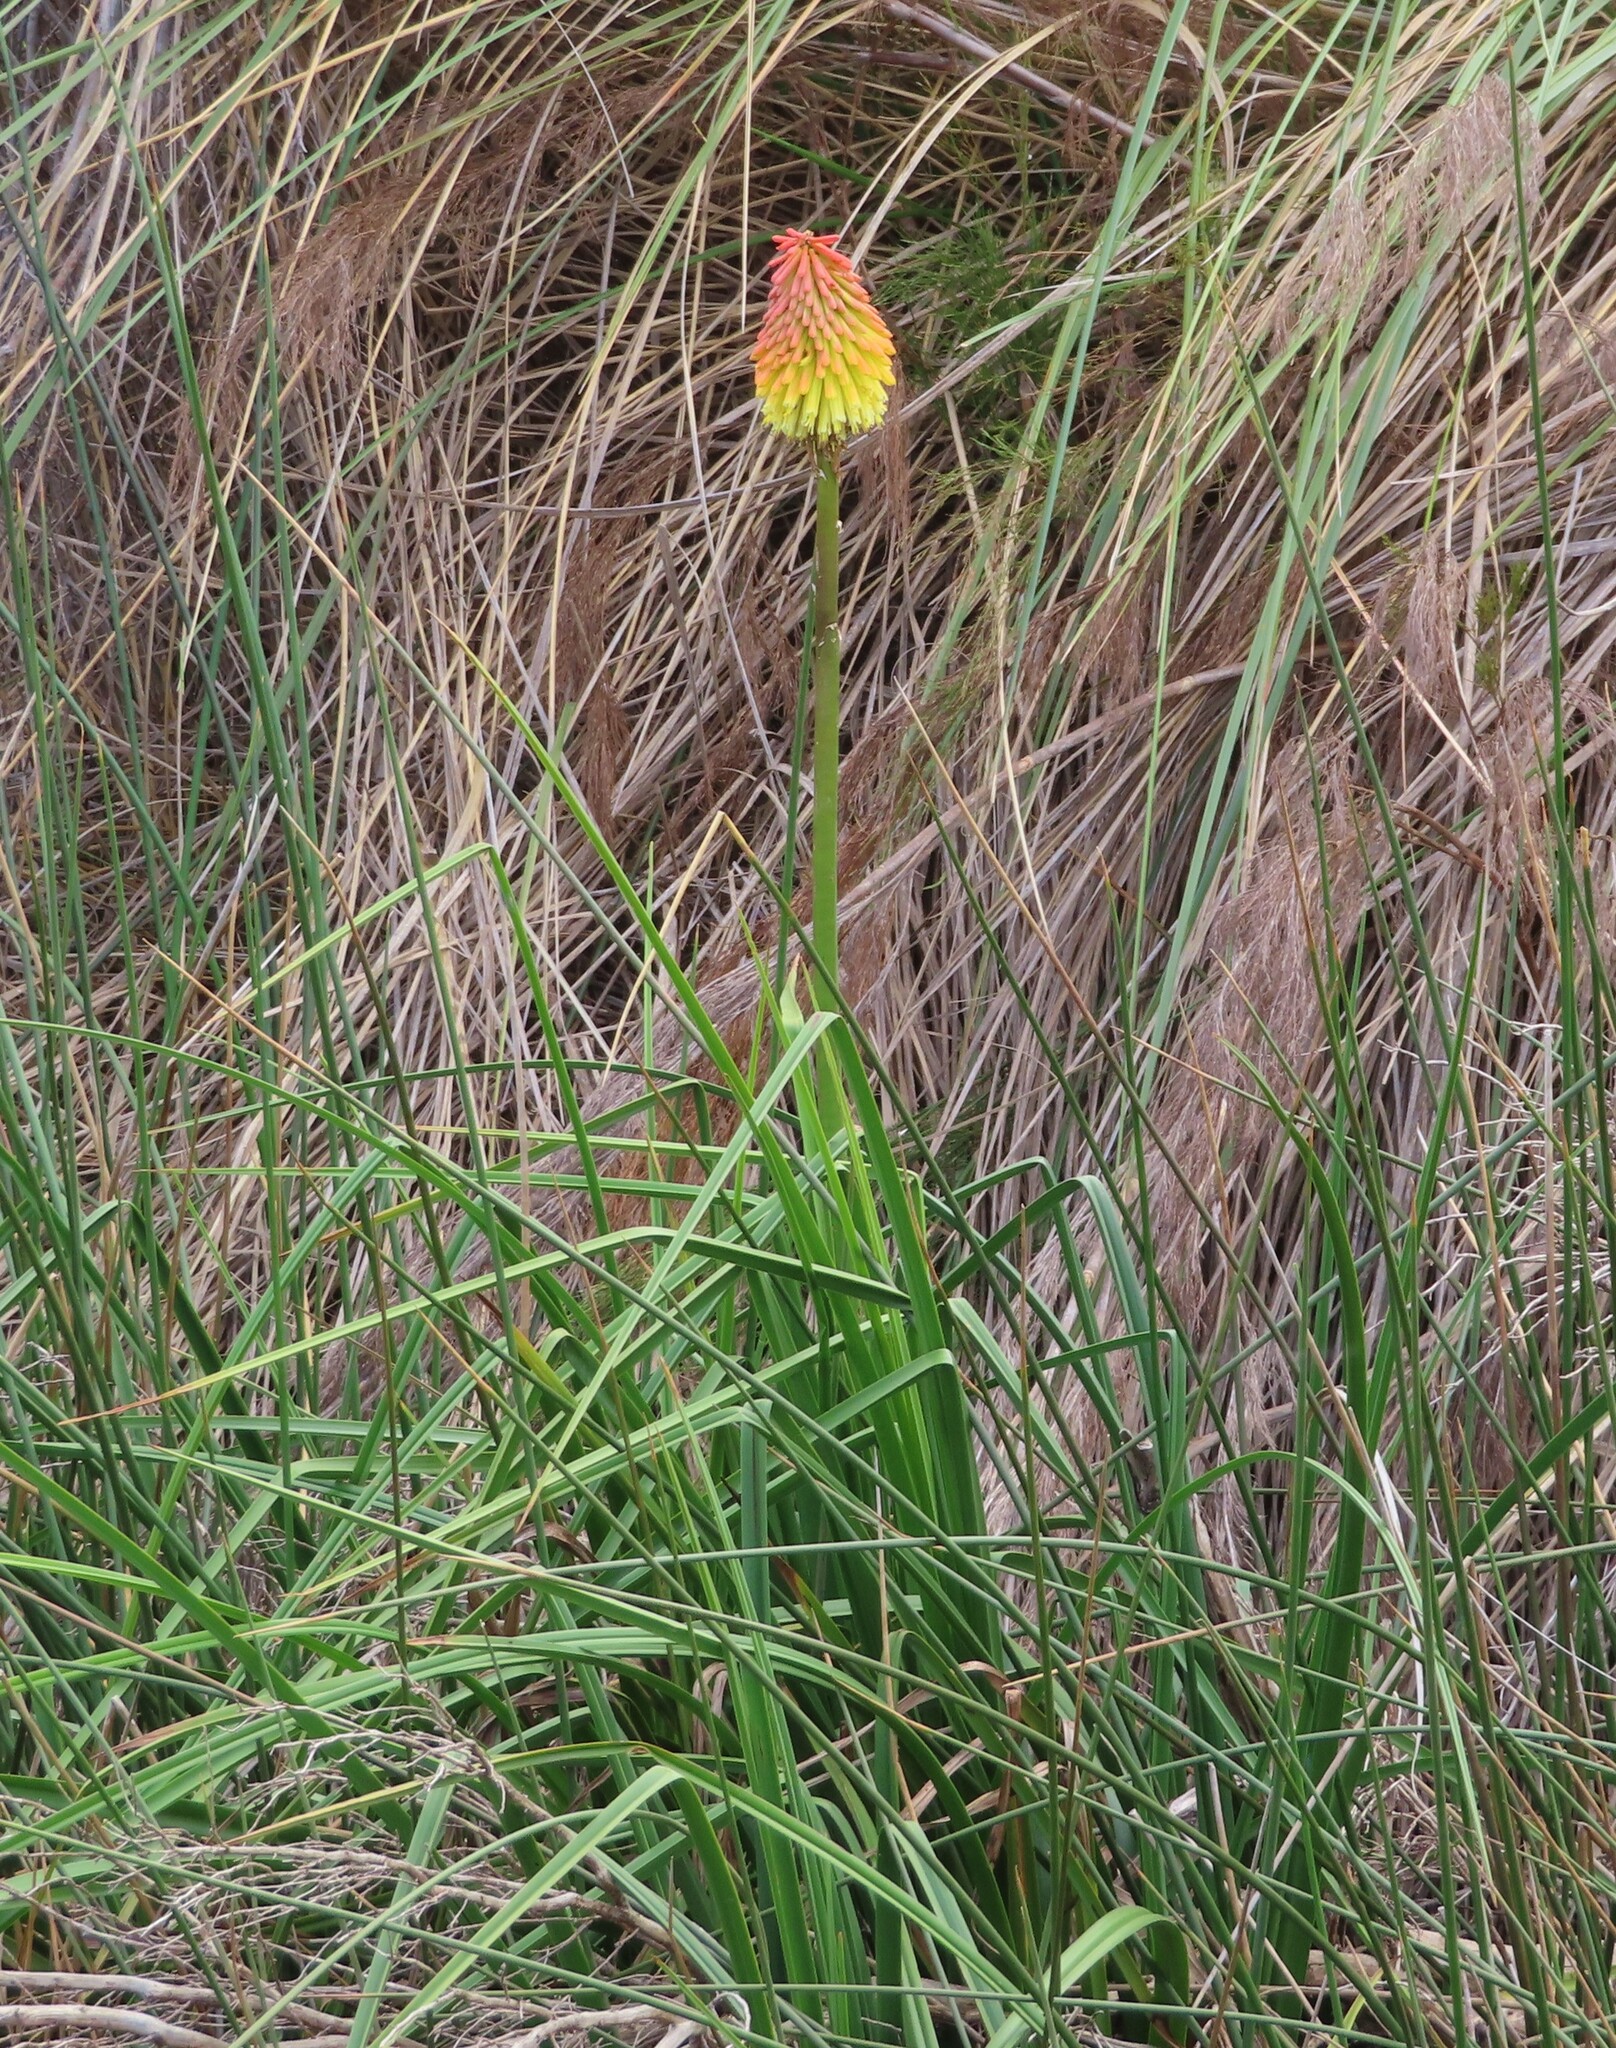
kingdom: Plantae
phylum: Tracheophyta
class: Liliopsida
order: Asparagales
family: Asphodelaceae
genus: Kniphofia
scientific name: Kniphofia uvaria
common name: Red-hot-poker
